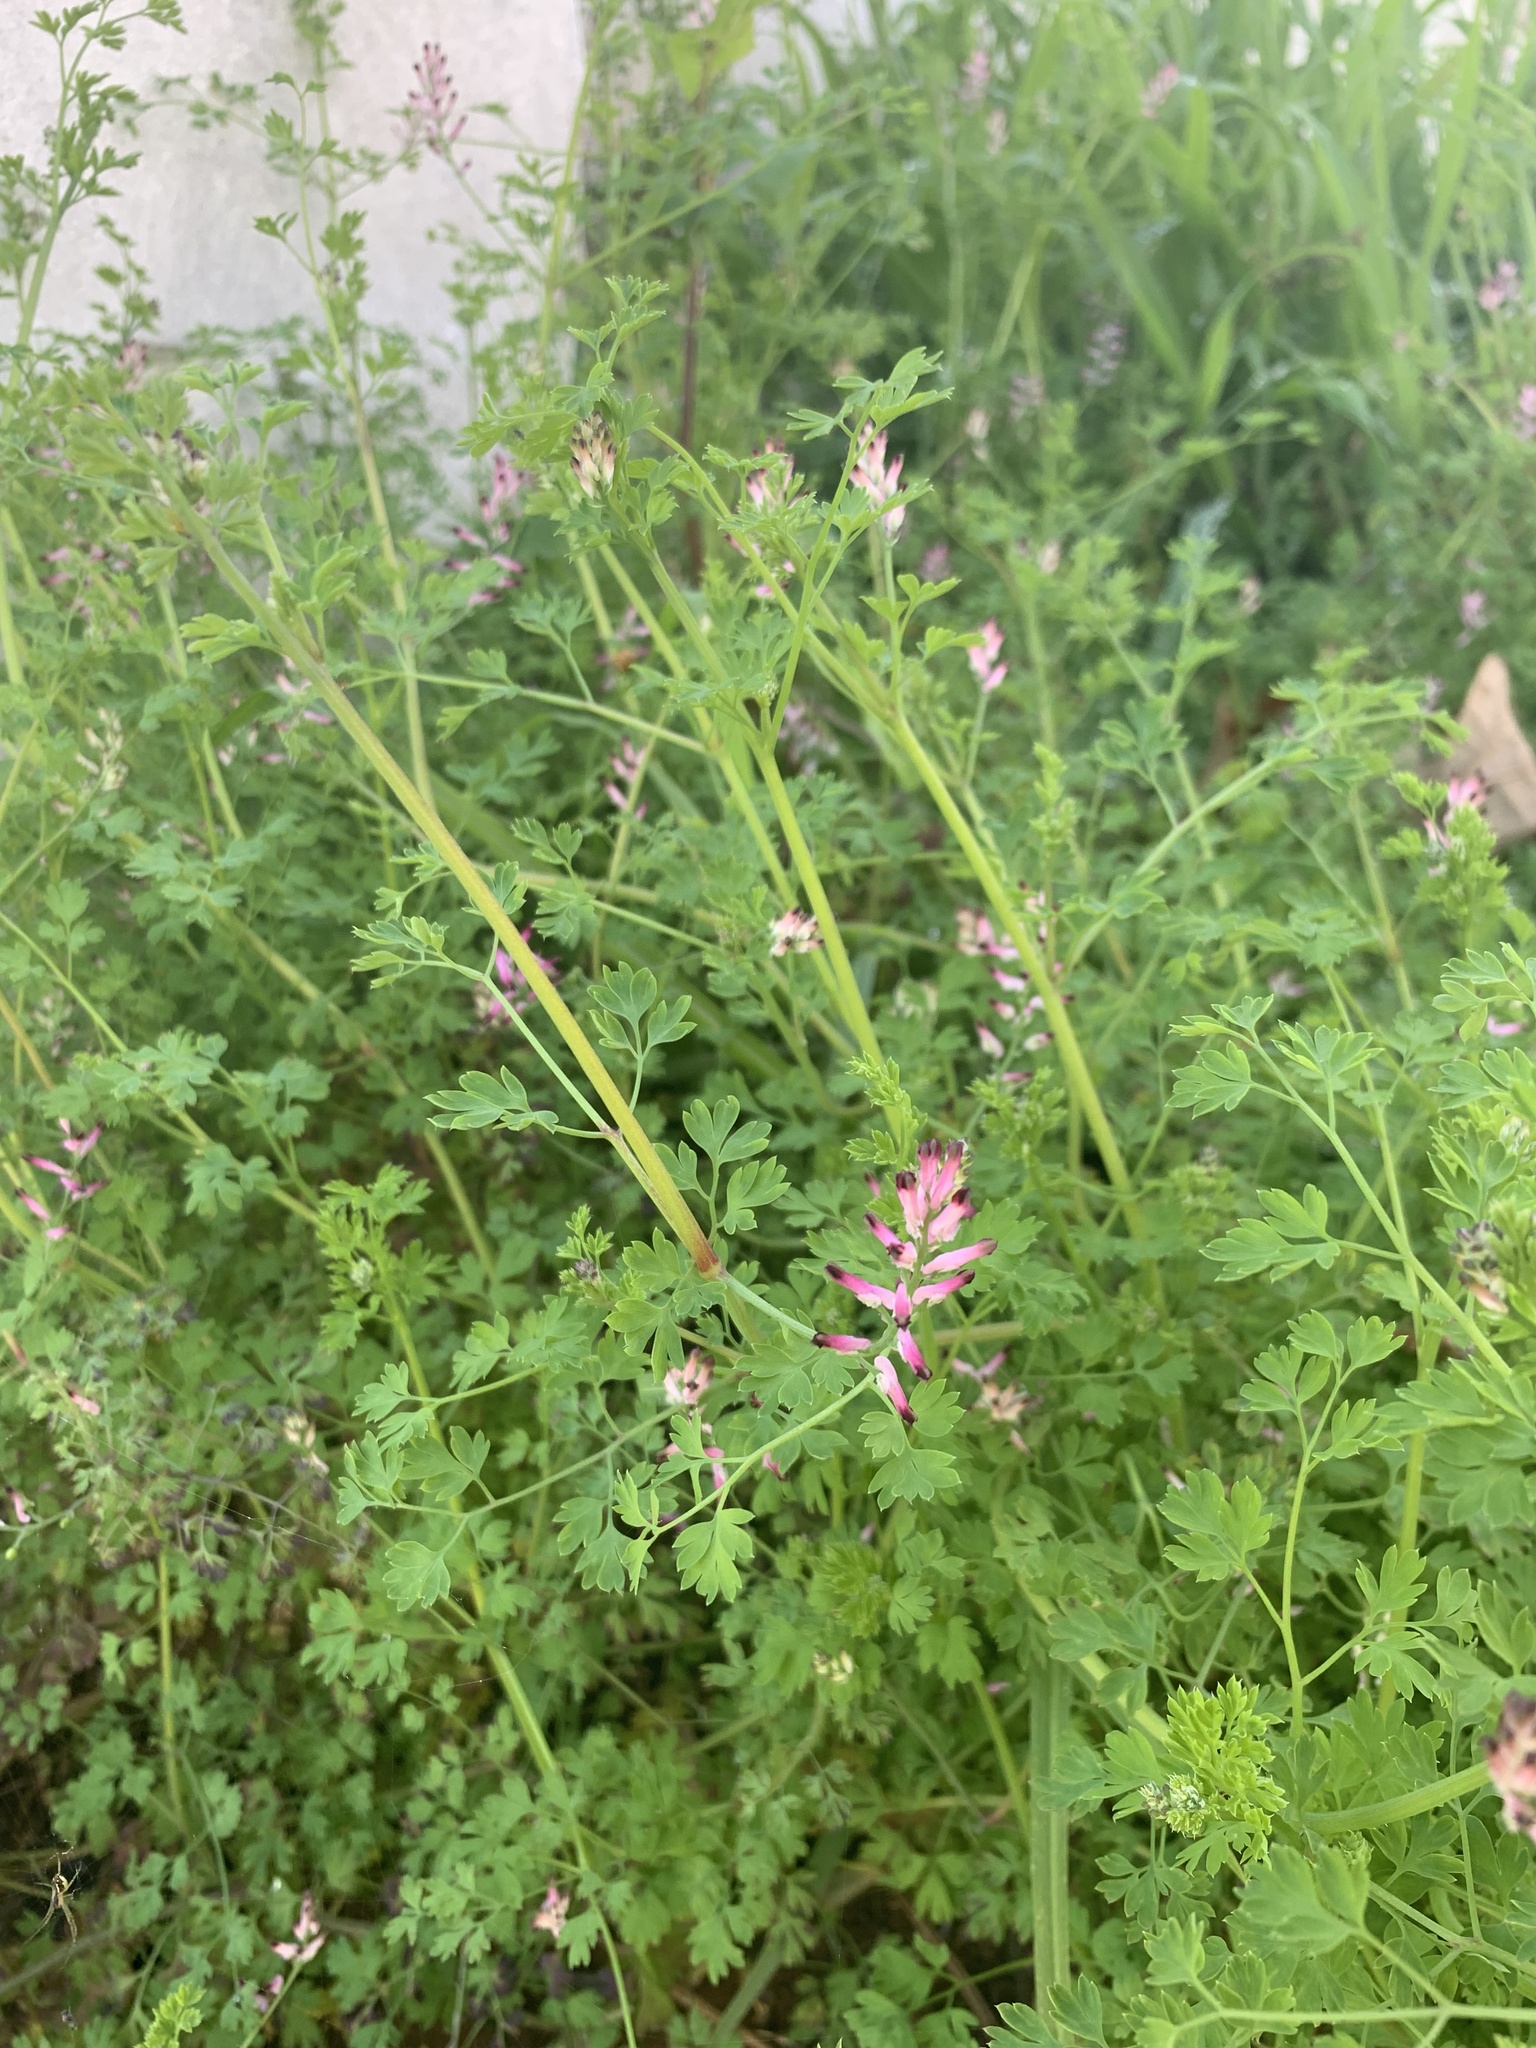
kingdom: Plantae
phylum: Tracheophyta
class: Magnoliopsida
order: Ranunculales
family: Papaveraceae
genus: Fumaria
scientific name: Fumaria muralis
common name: Common ramping-fumitory
